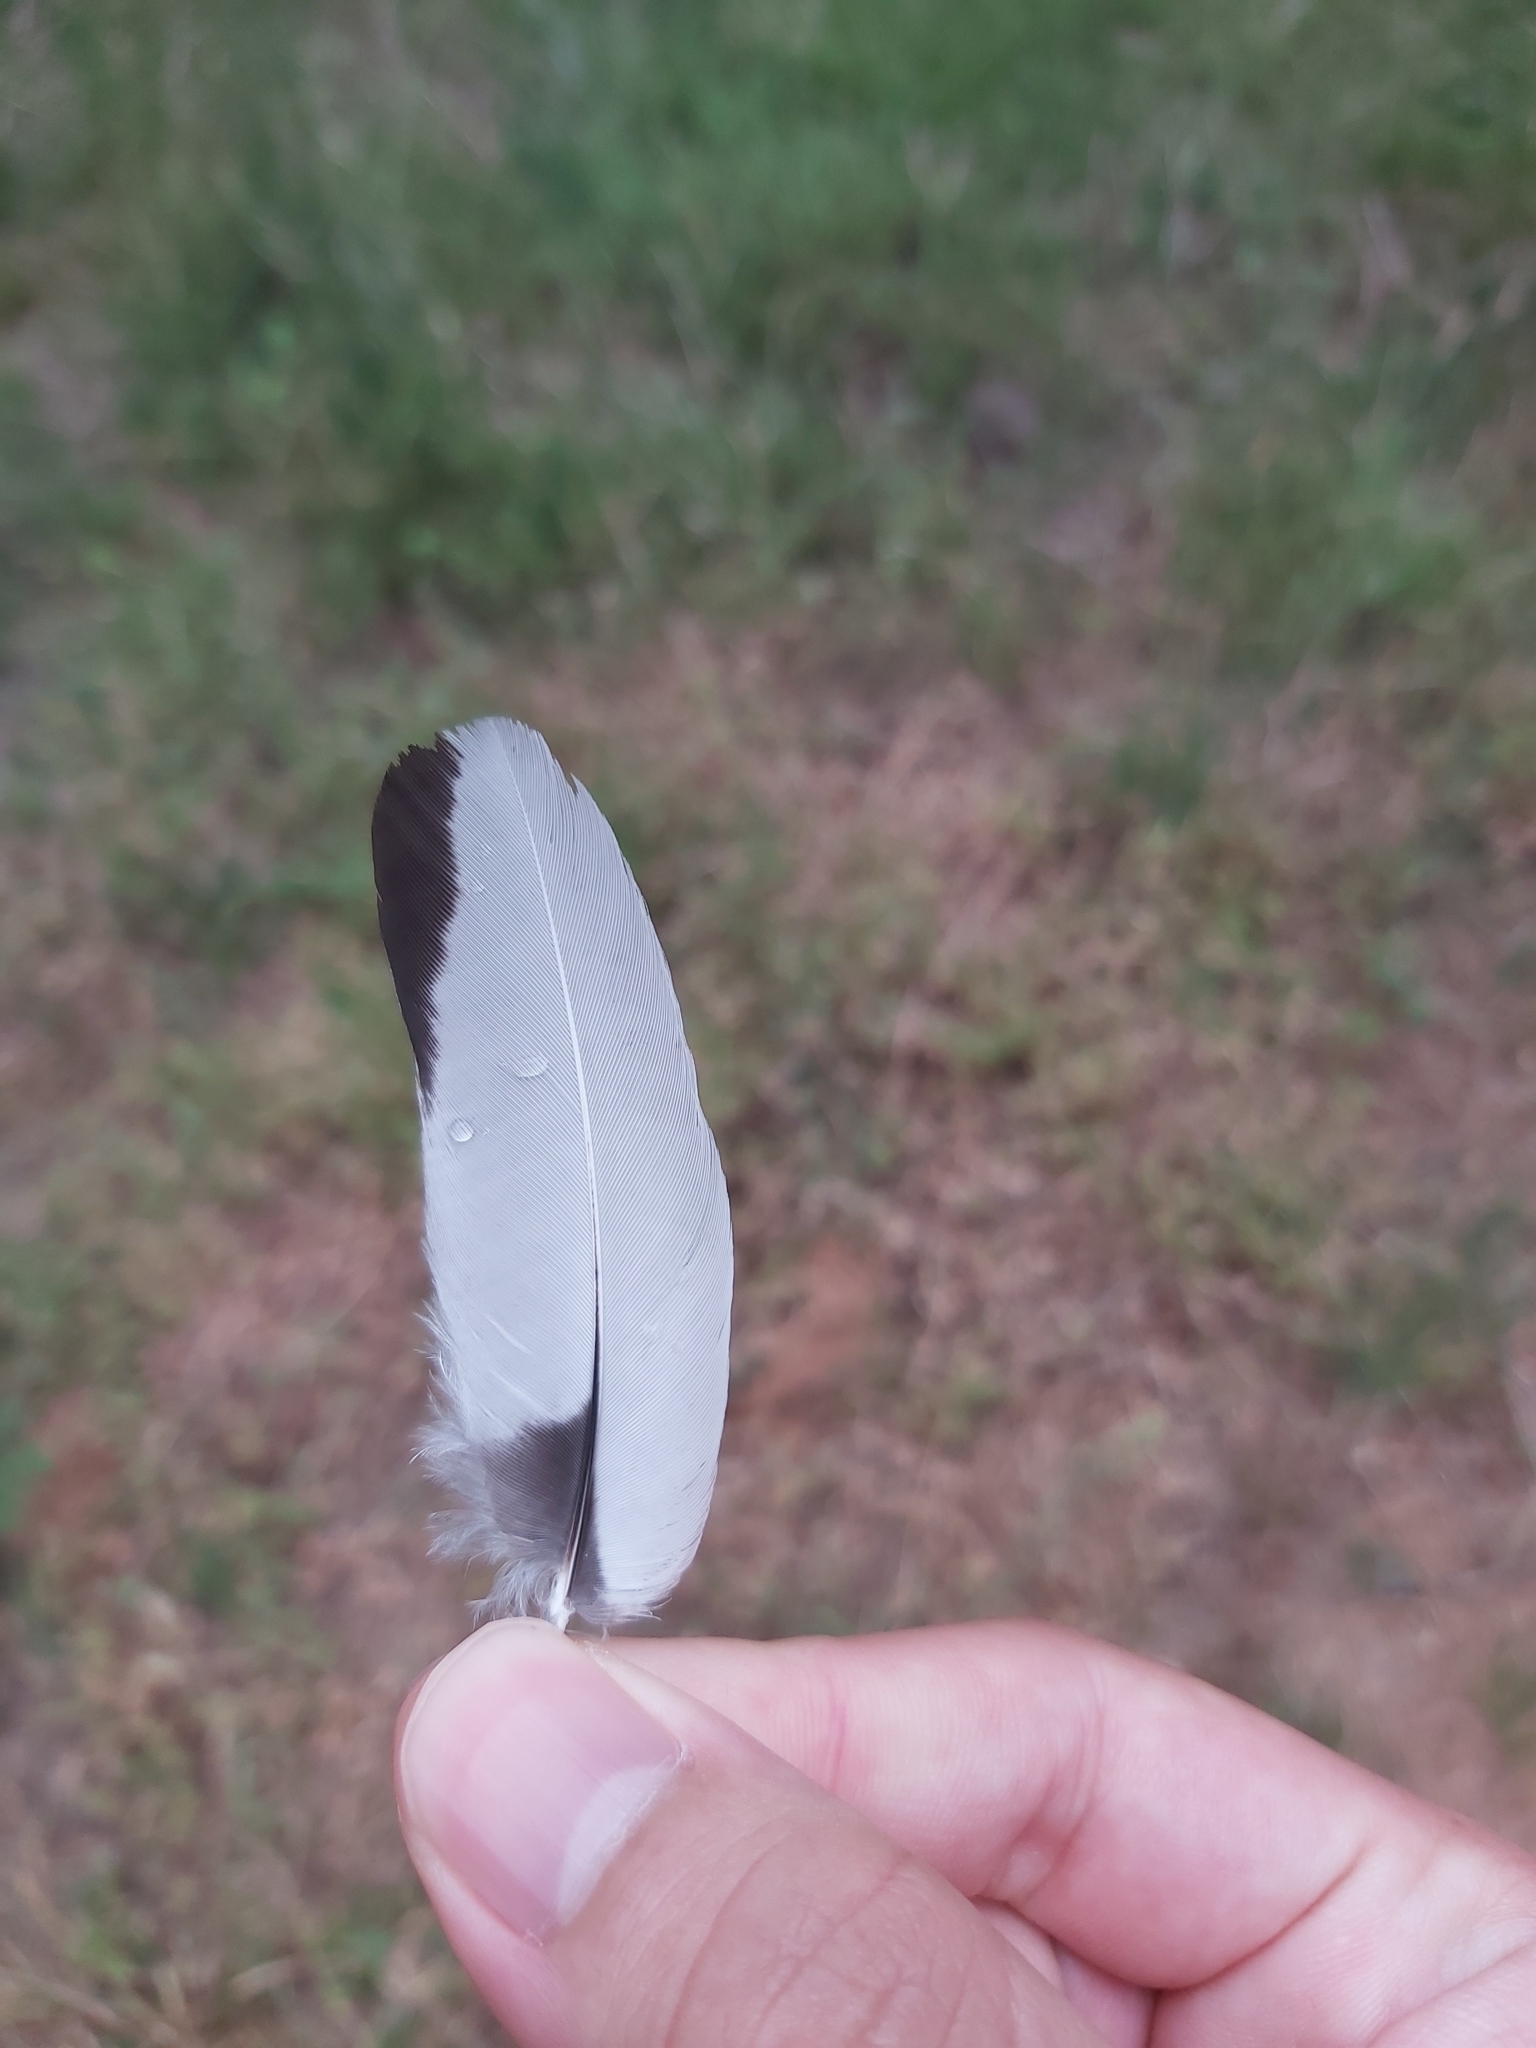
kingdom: Animalia
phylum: Chordata
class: Aves
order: Passeriformes
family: Cracticidae
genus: Gymnorhina
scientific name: Gymnorhina tibicen
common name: Australian magpie
